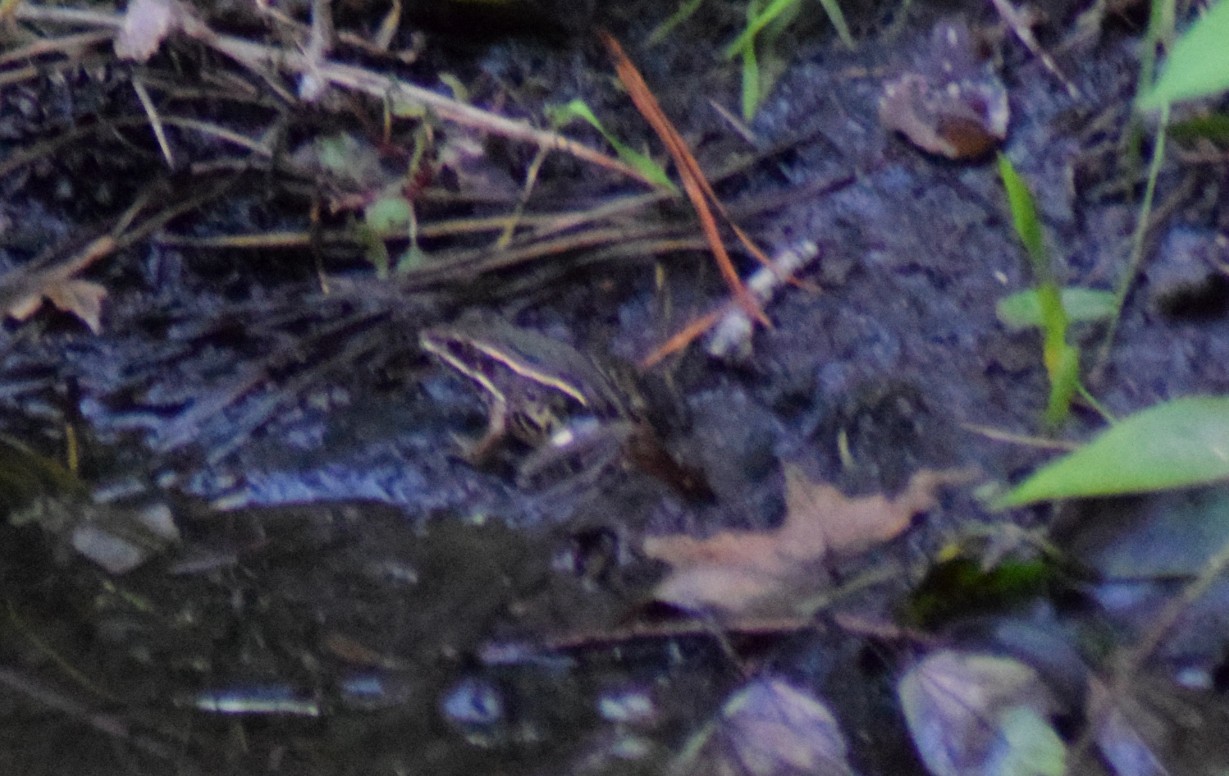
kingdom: Animalia
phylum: Chordata
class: Amphibia
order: Anura
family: Ranidae
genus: Lithobates
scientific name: Lithobates sphenocephalus
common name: Southern leopard frog
